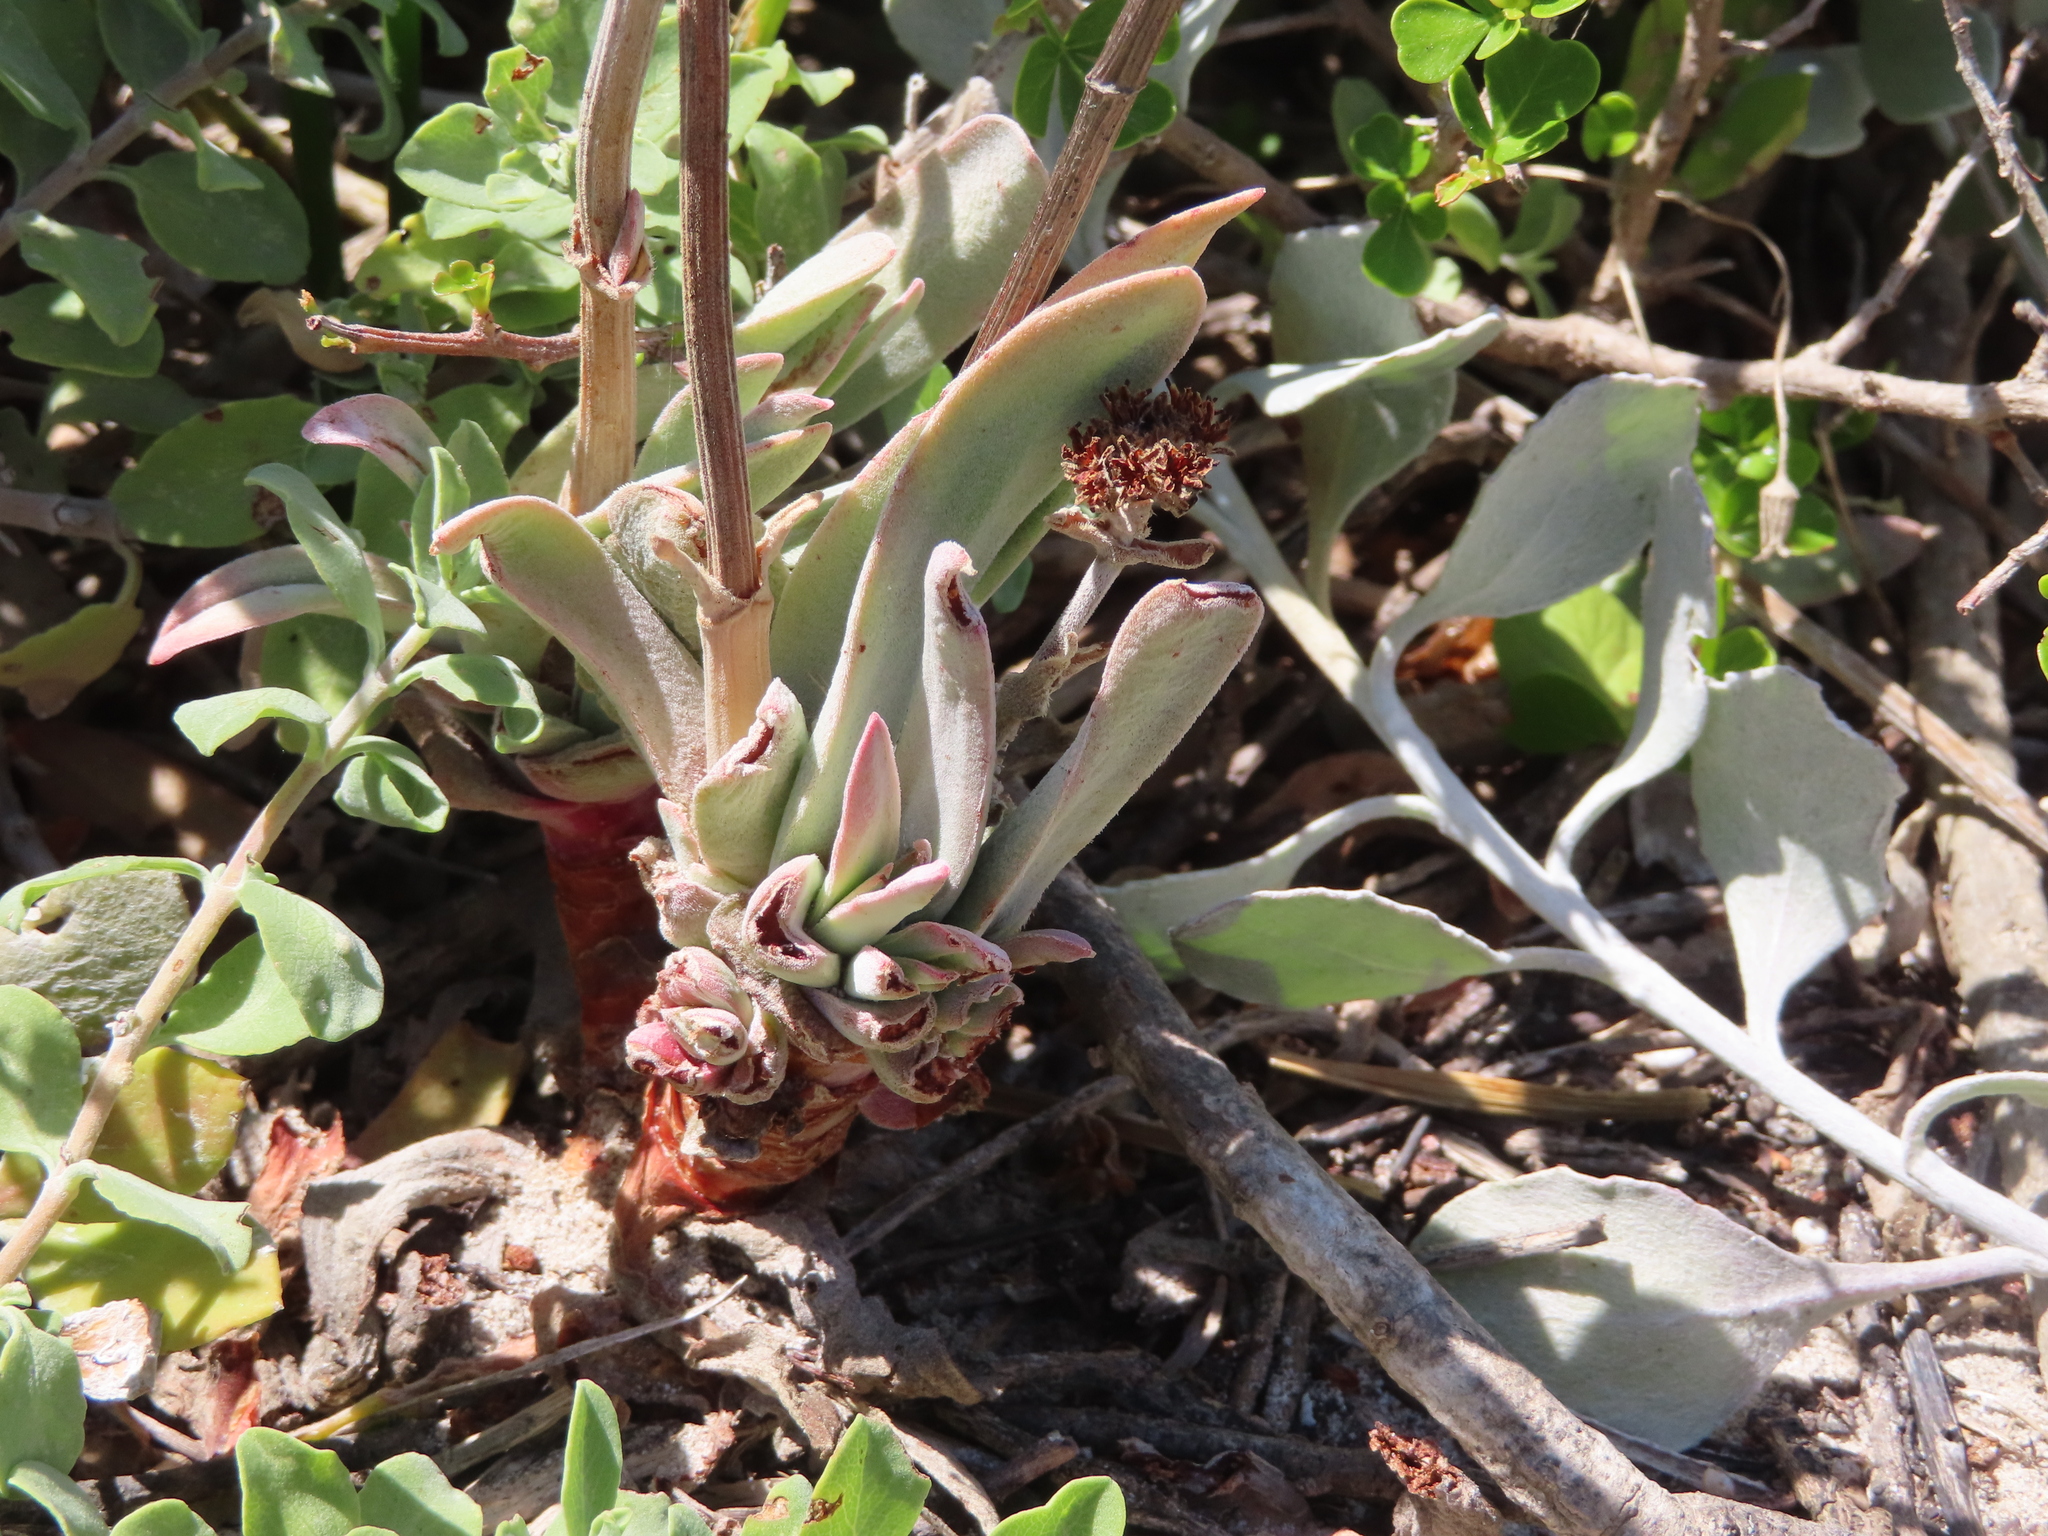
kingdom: Plantae
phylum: Tracheophyta
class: Magnoliopsida
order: Saxifragales
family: Crassulaceae
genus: Crassula
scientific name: Crassula nudicaulis
